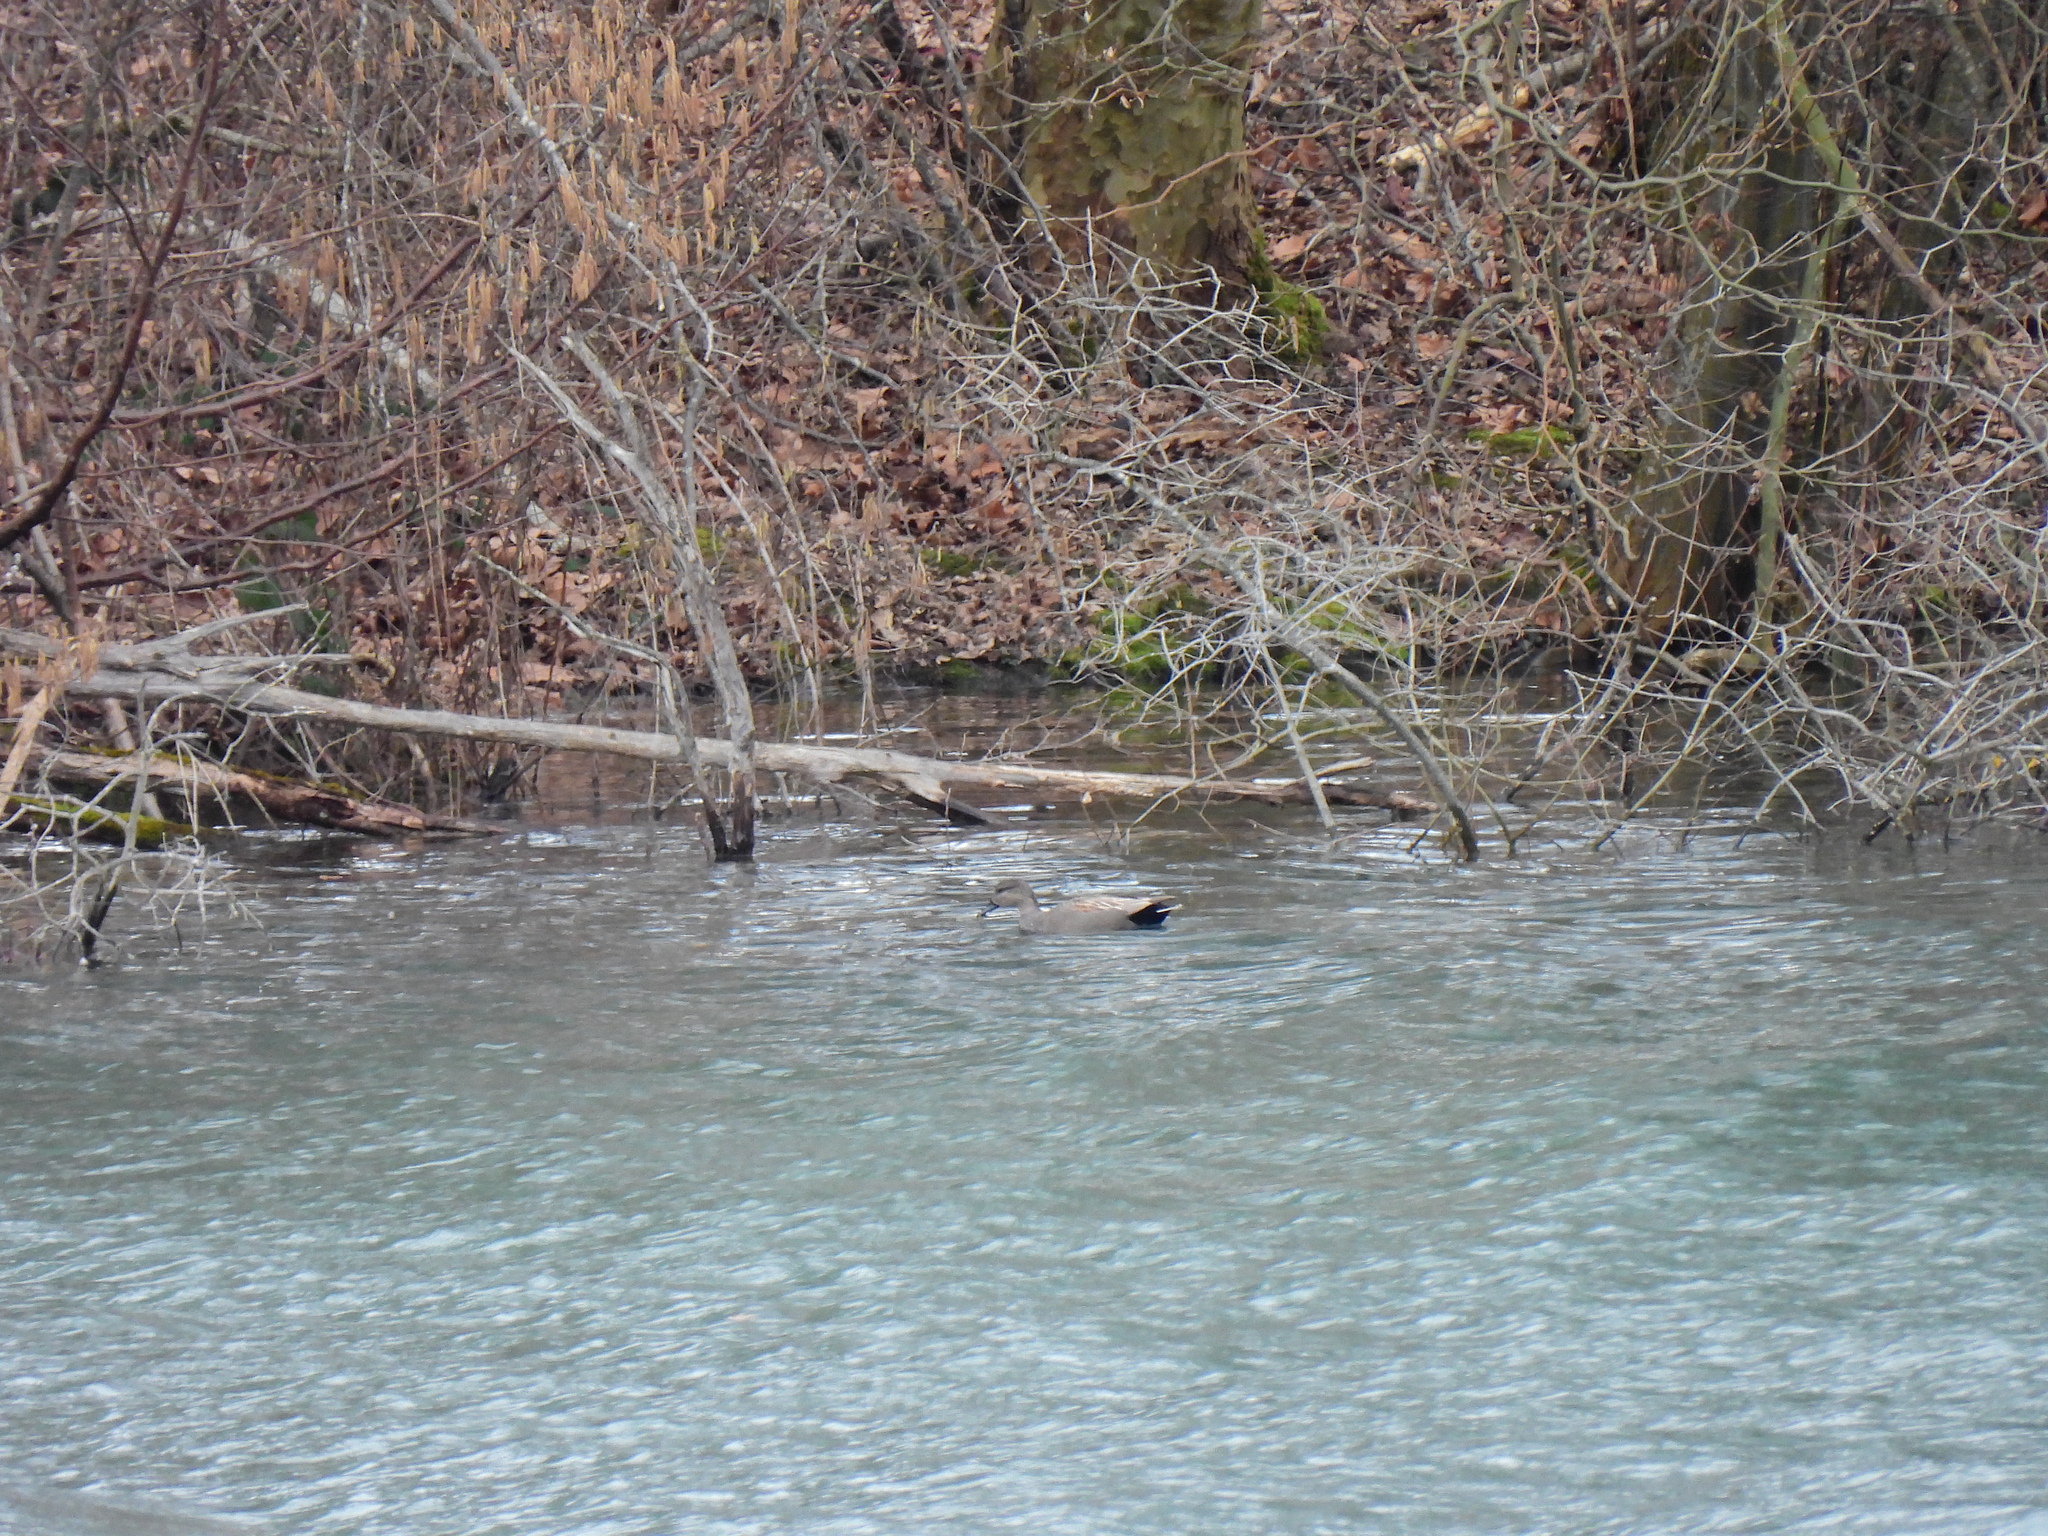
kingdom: Animalia
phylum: Chordata
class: Aves
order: Anseriformes
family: Anatidae
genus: Mareca
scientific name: Mareca strepera
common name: Gadwall
